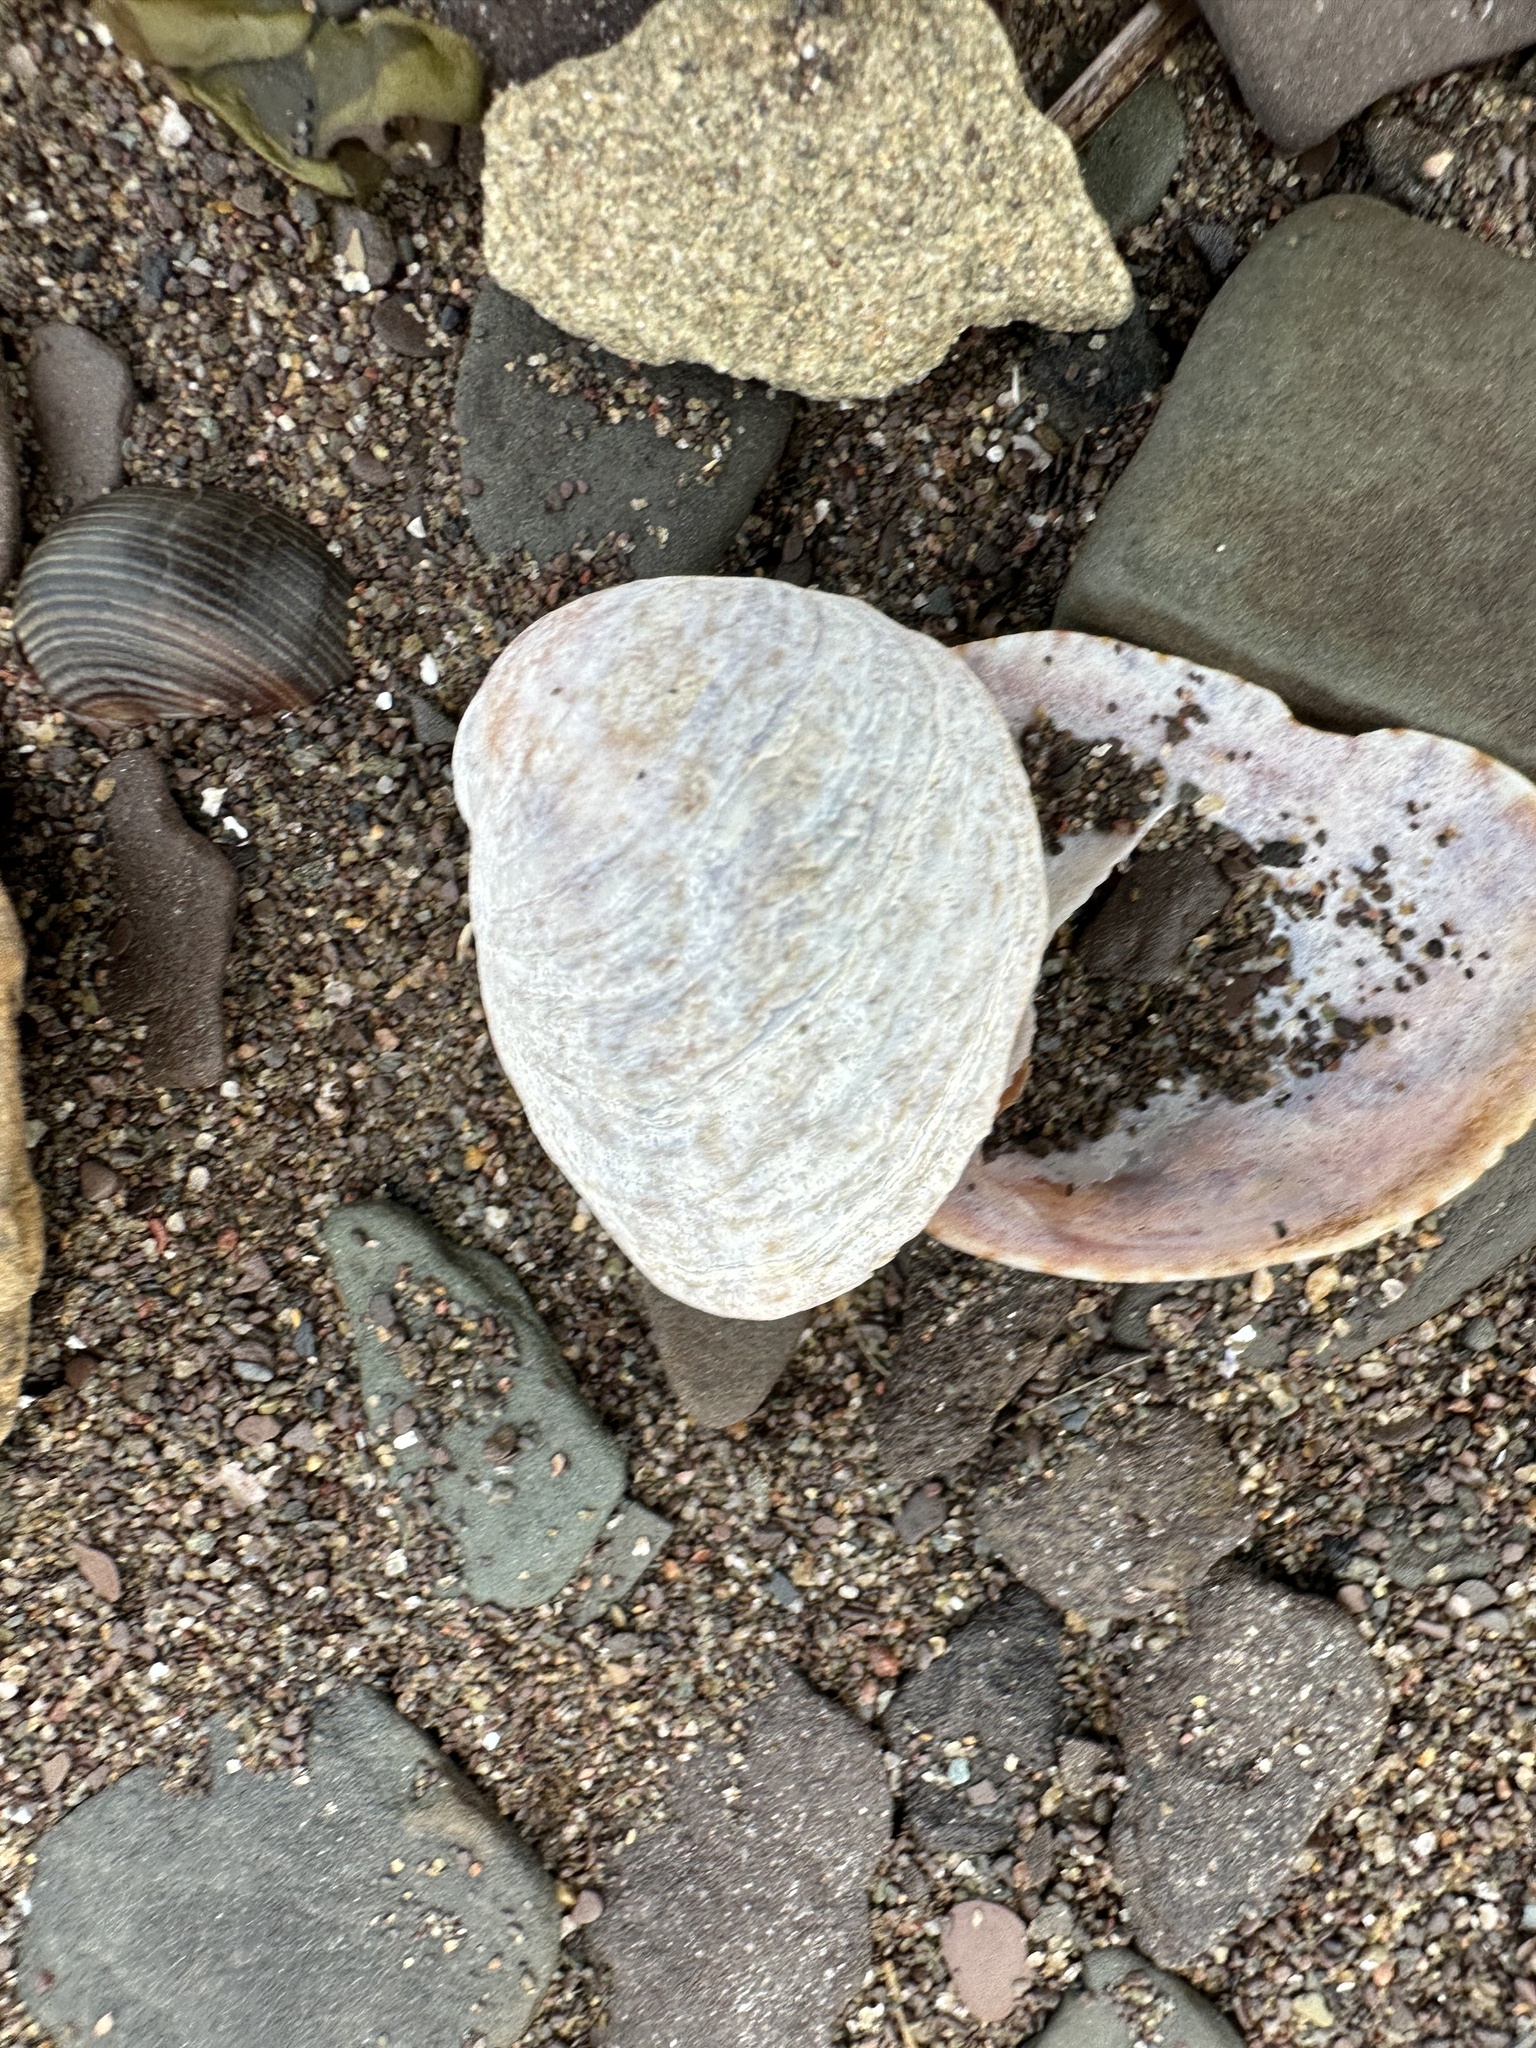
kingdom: Animalia
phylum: Mollusca
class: Gastropoda
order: Littorinimorpha
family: Calyptraeidae
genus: Crepidula
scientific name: Crepidula fornicata
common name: Slipper limpet
